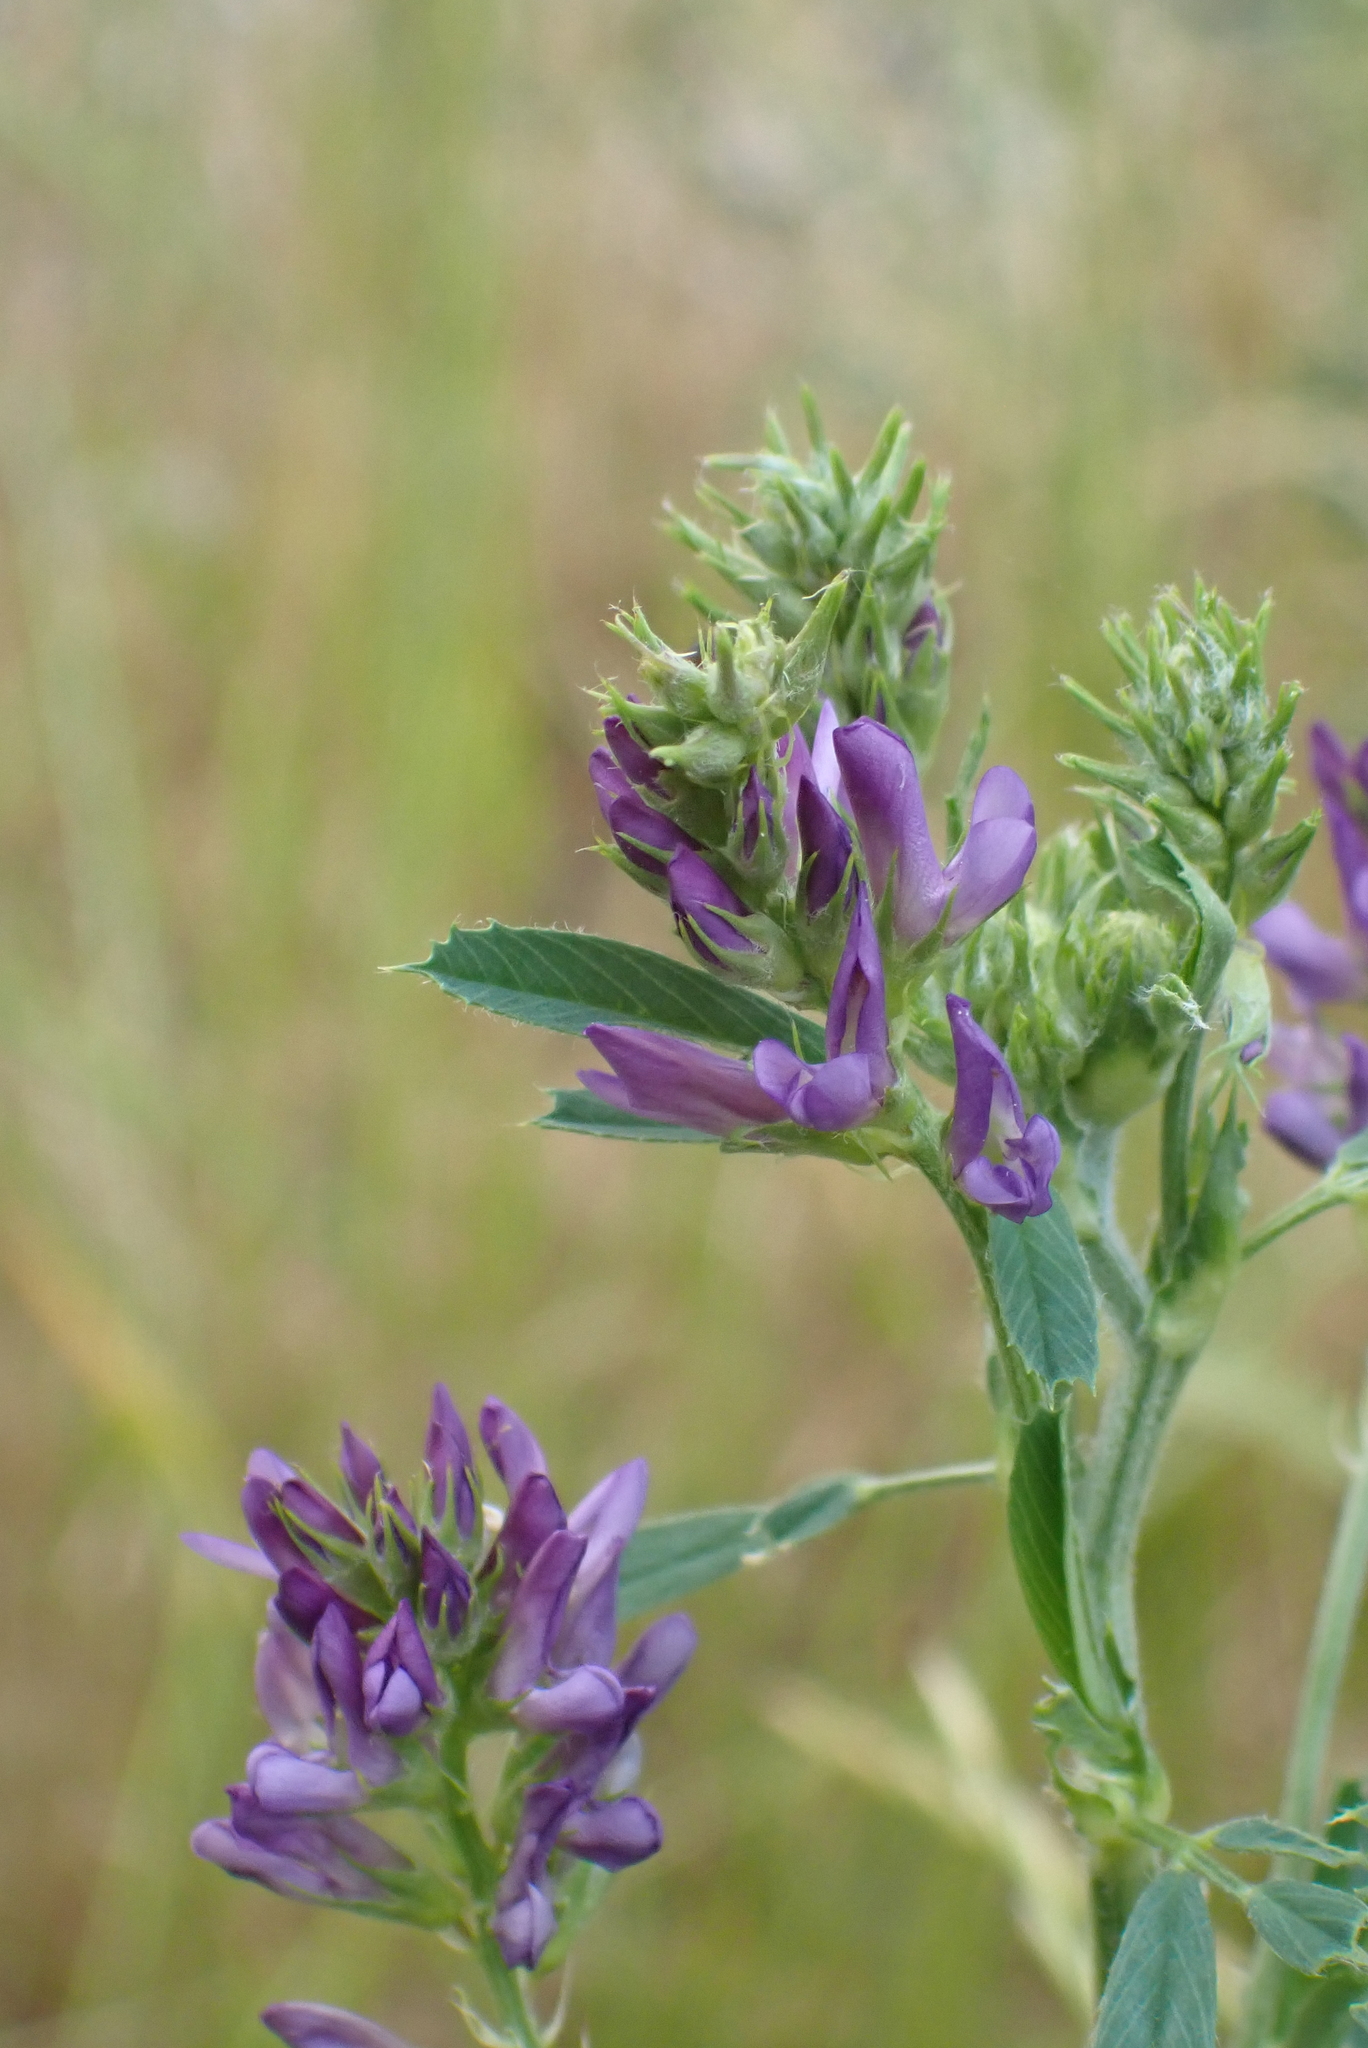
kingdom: Plantae
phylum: Tracheophyta
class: Magnoliopsida
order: Fabales
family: Fabaceae
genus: Medicago
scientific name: Medicago sativa
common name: Alfalfa
